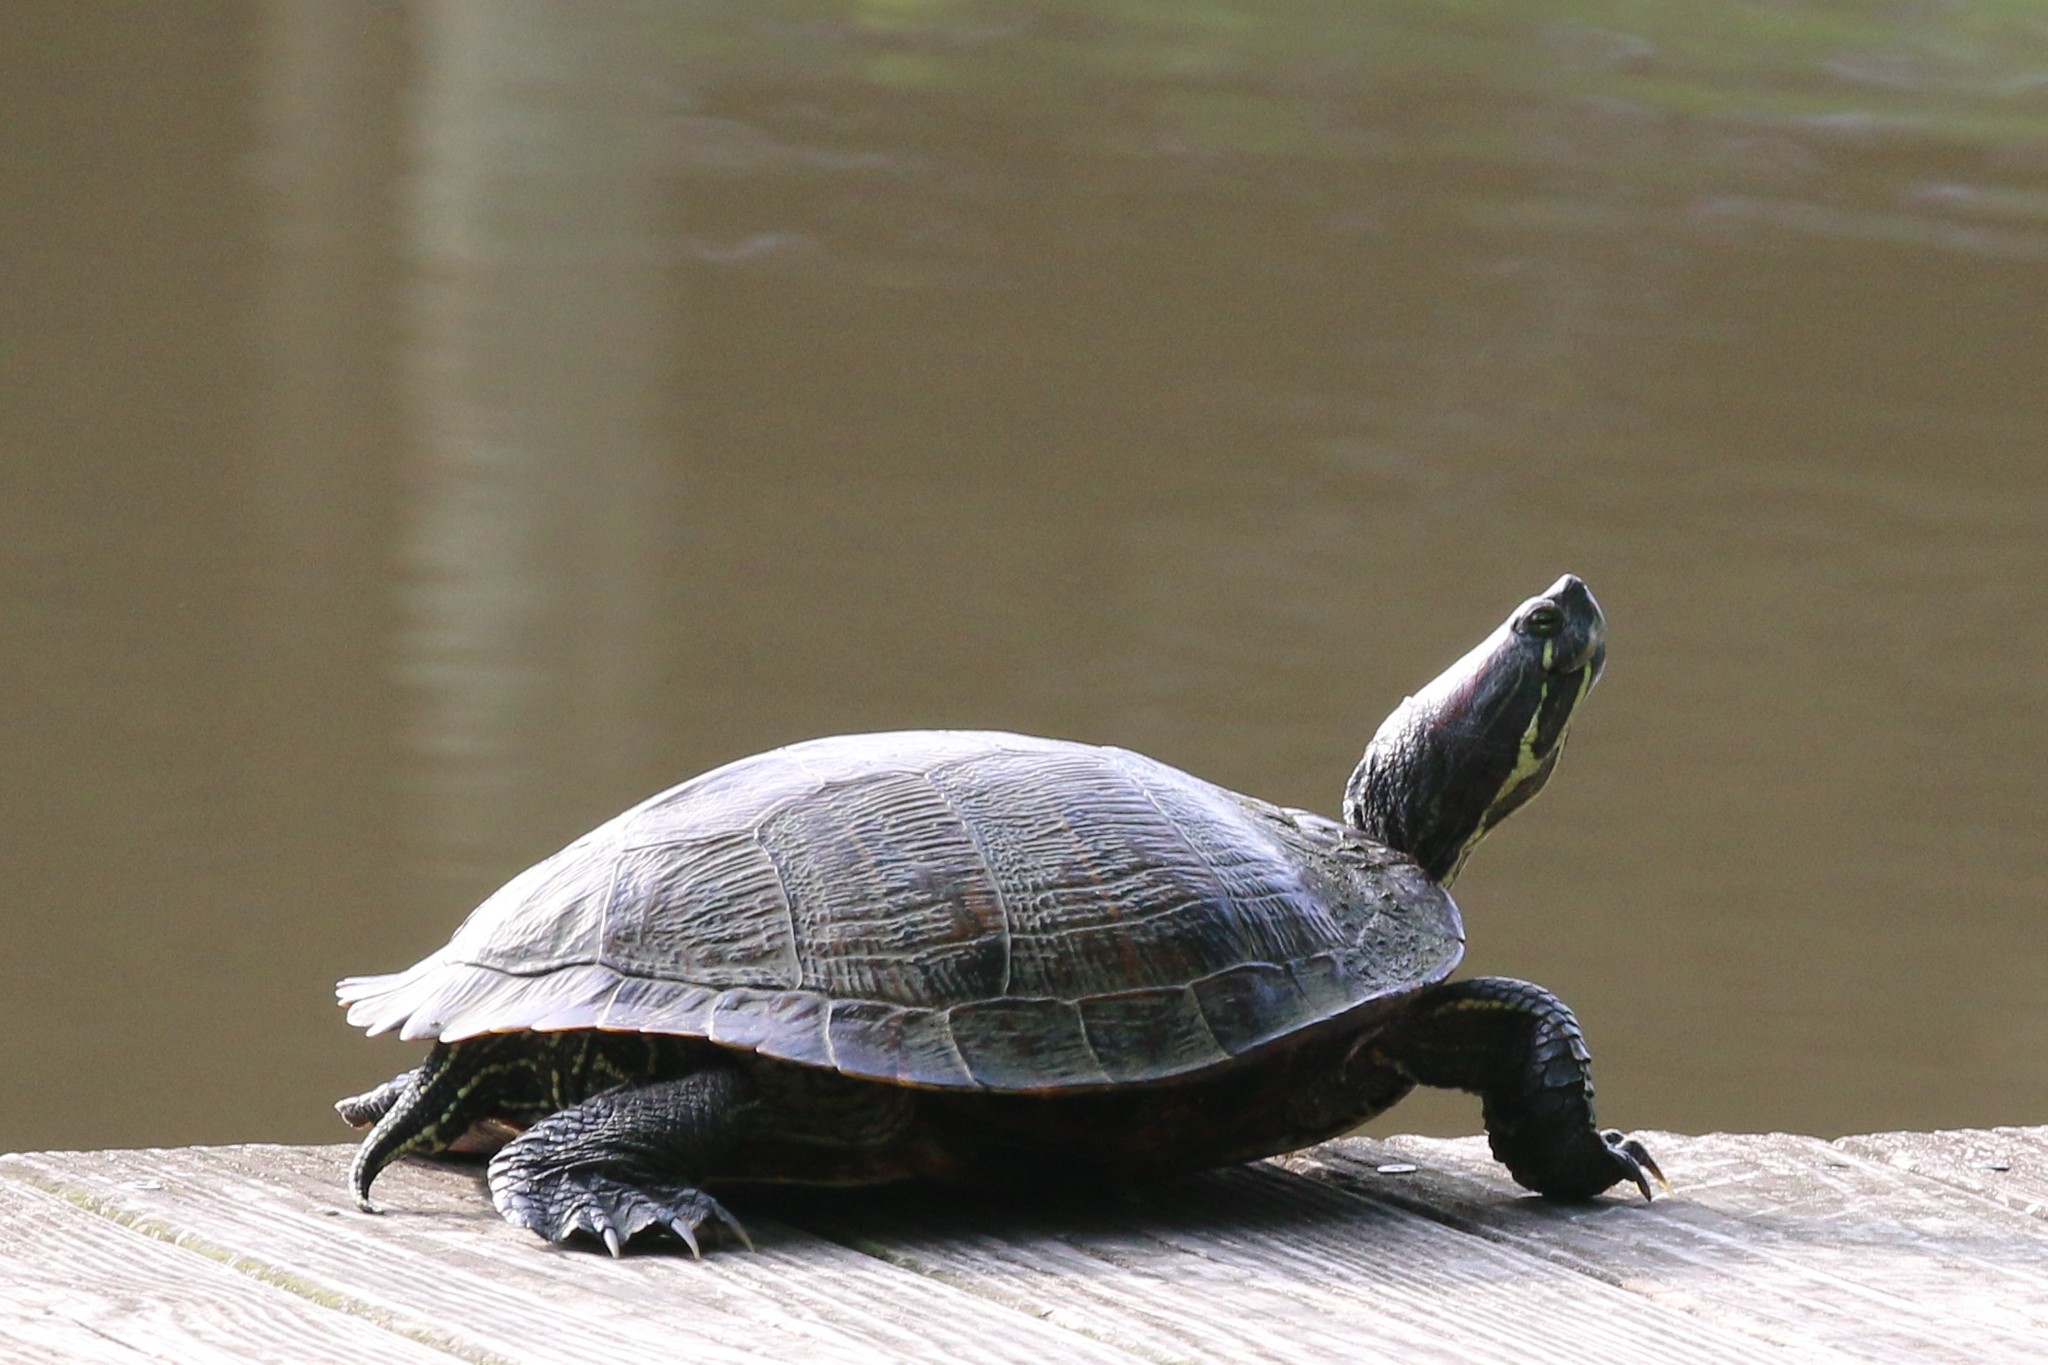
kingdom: Animalia
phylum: Chordata
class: Testudines
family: Emydidae
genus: Trachemys
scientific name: Trachemys scripta
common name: Slider
